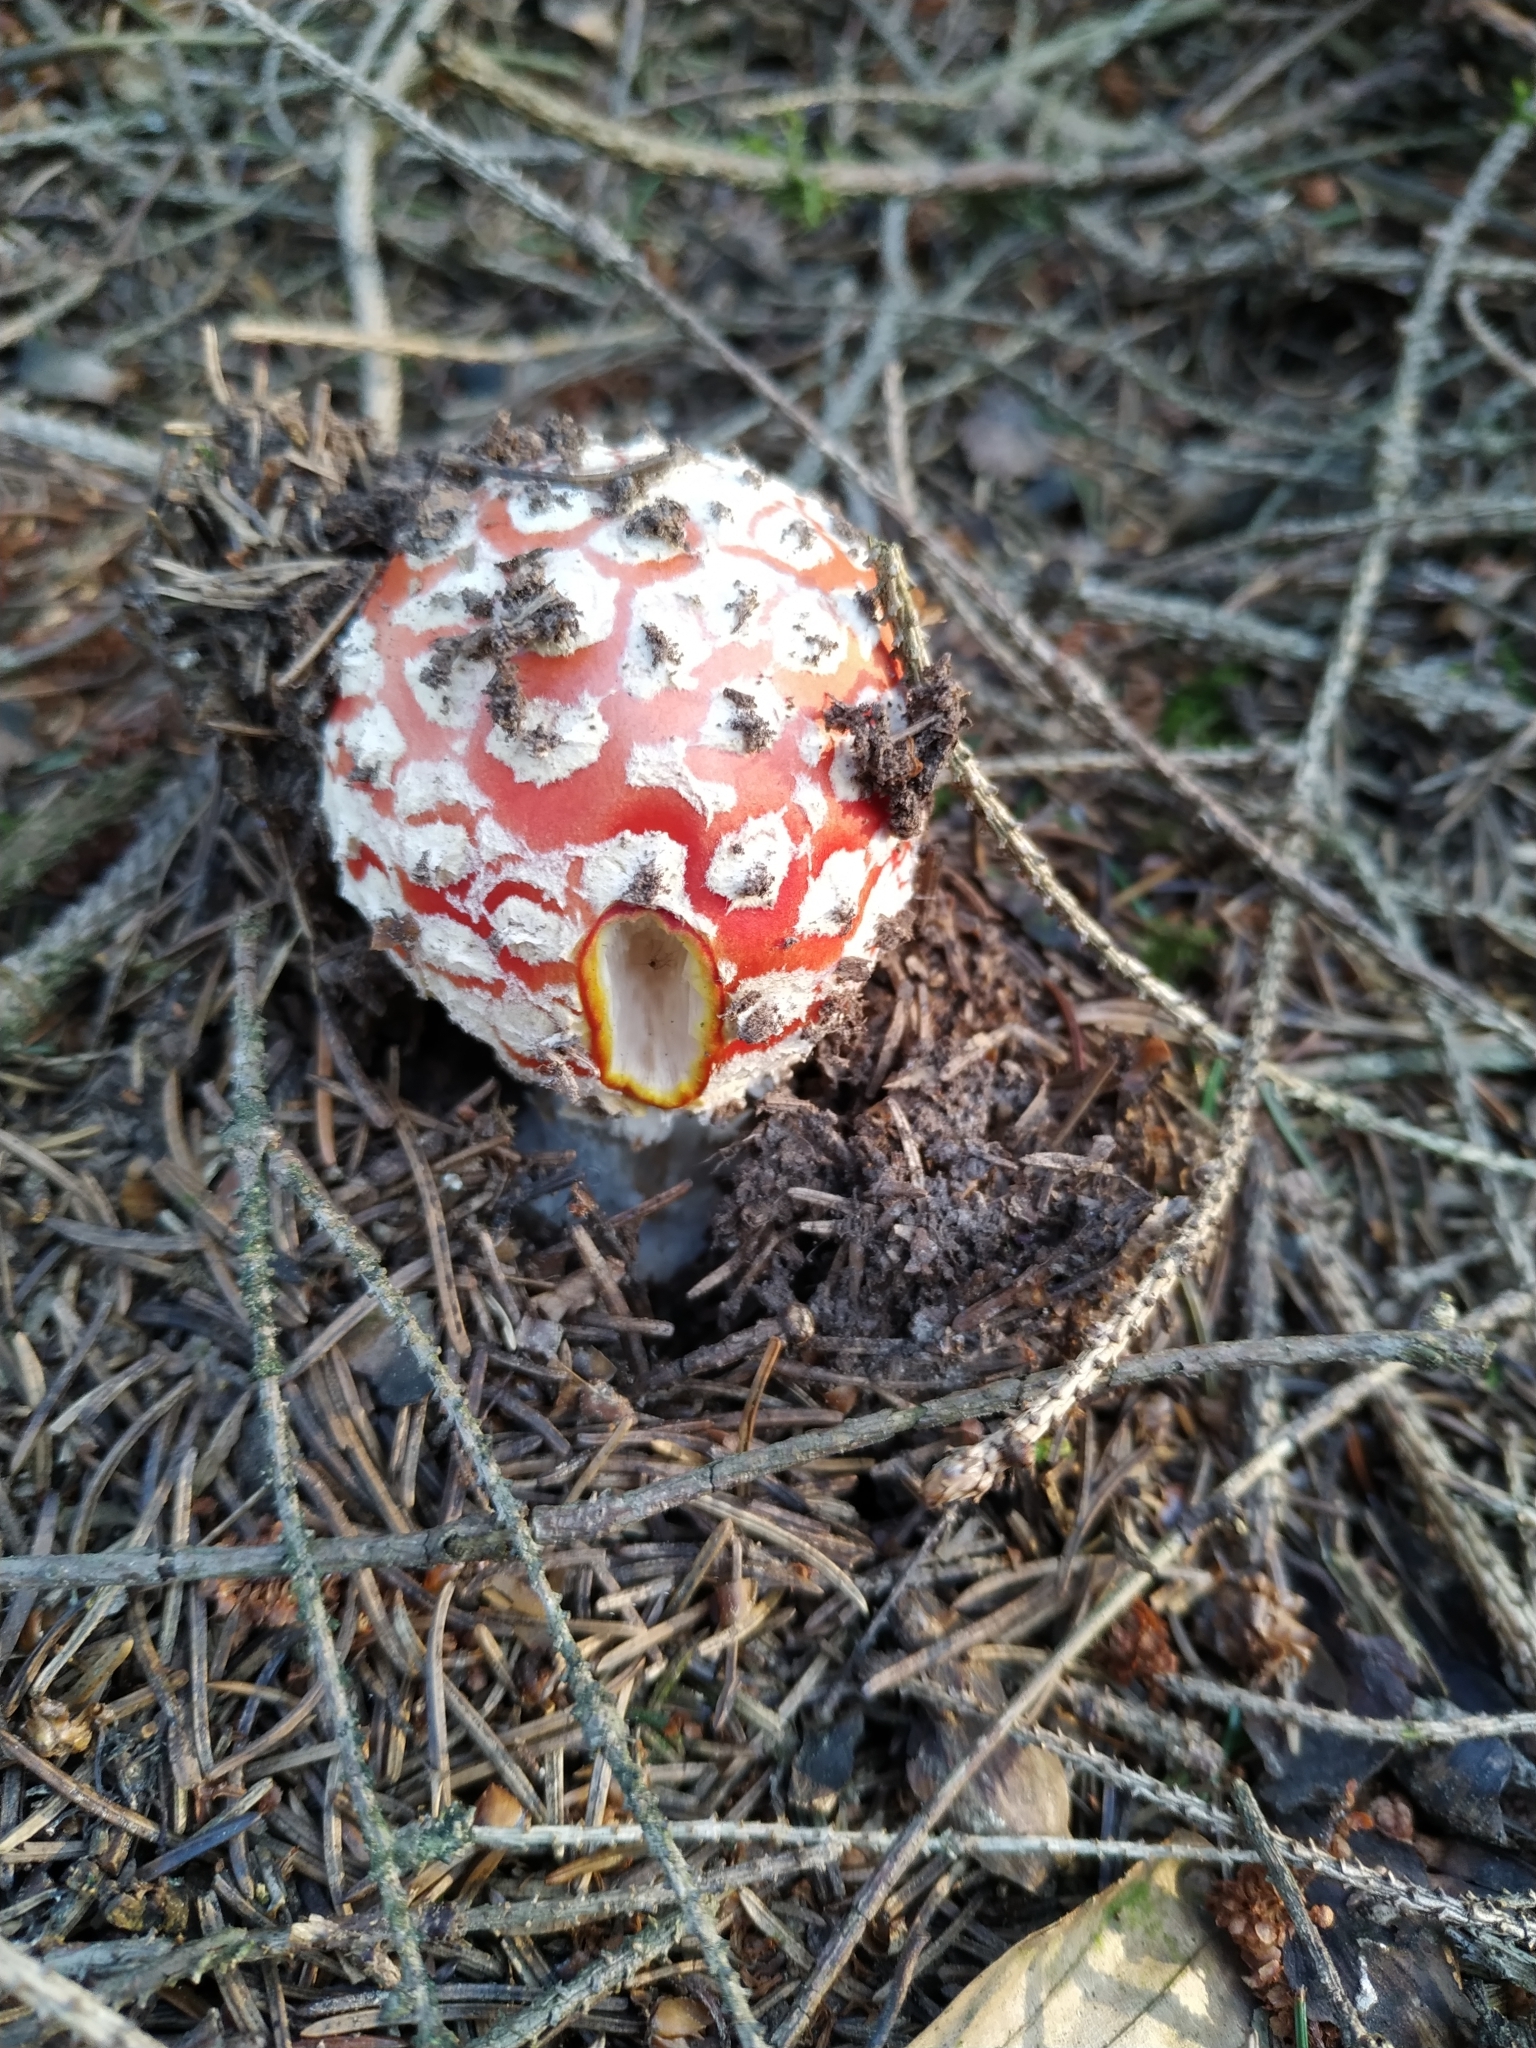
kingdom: Fungi
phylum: Basidiomycota
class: Agaricomycetes
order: Agaricales
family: Amanitaceae
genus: Amanita
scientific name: Amanita muscaria
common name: Fly agaric
